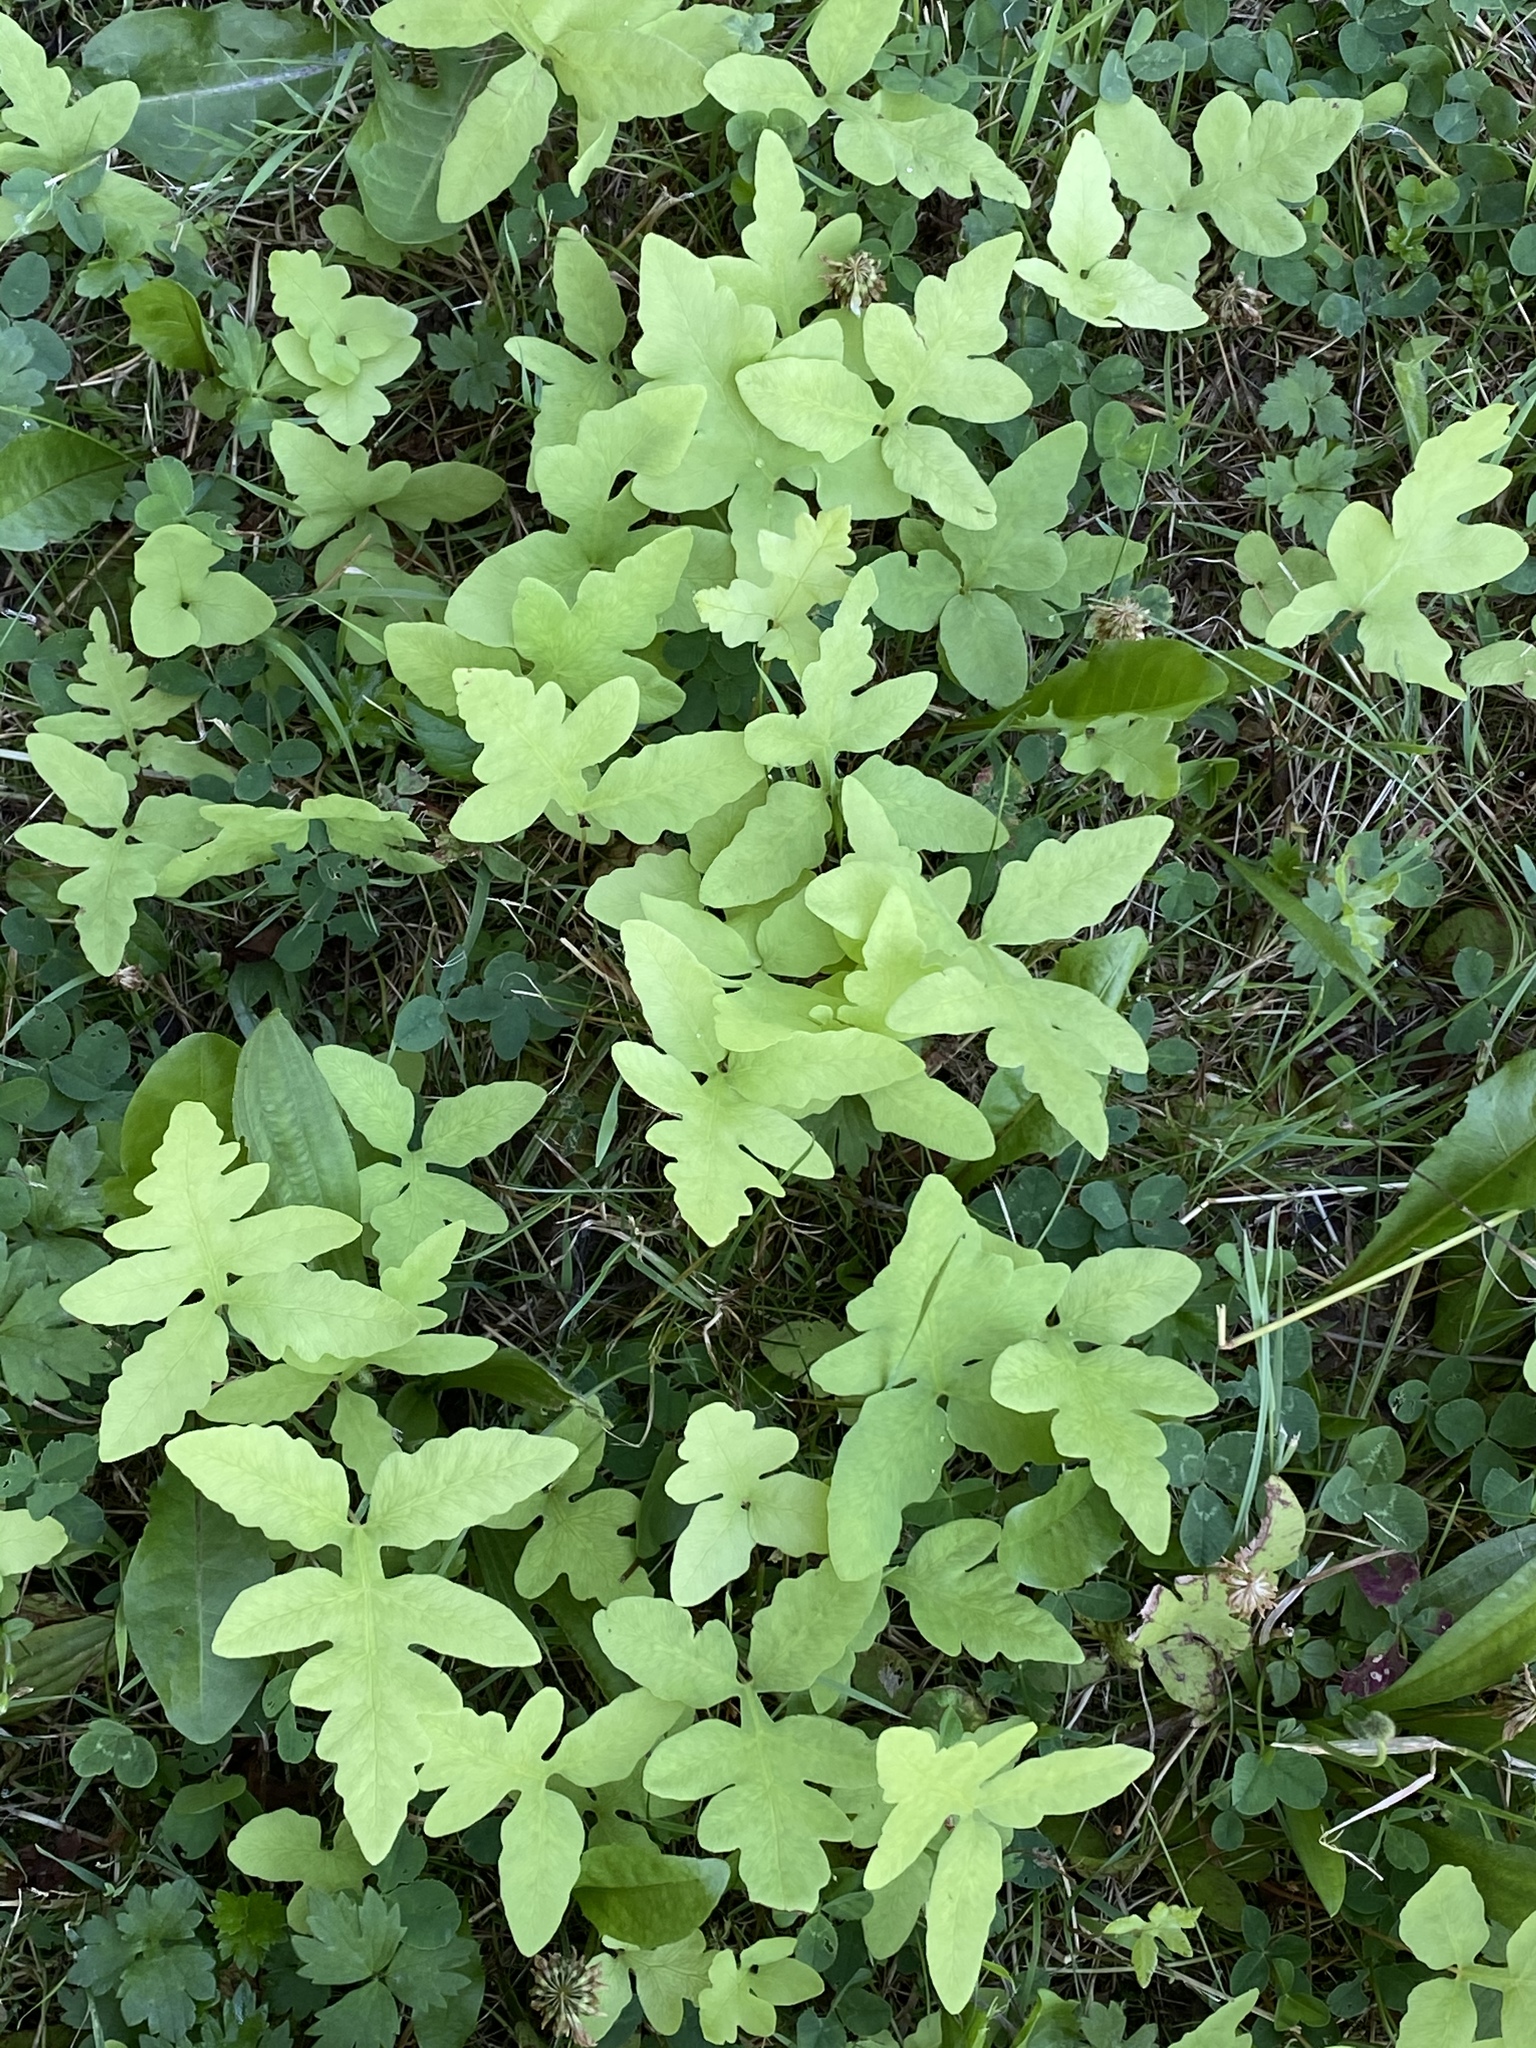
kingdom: Plantae
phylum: Tracheophyta
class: Polypodiopsida
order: Polypodiales
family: Onocleaceae
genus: Onoclea
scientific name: Onoclea sensibilis
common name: Sensitive fern
